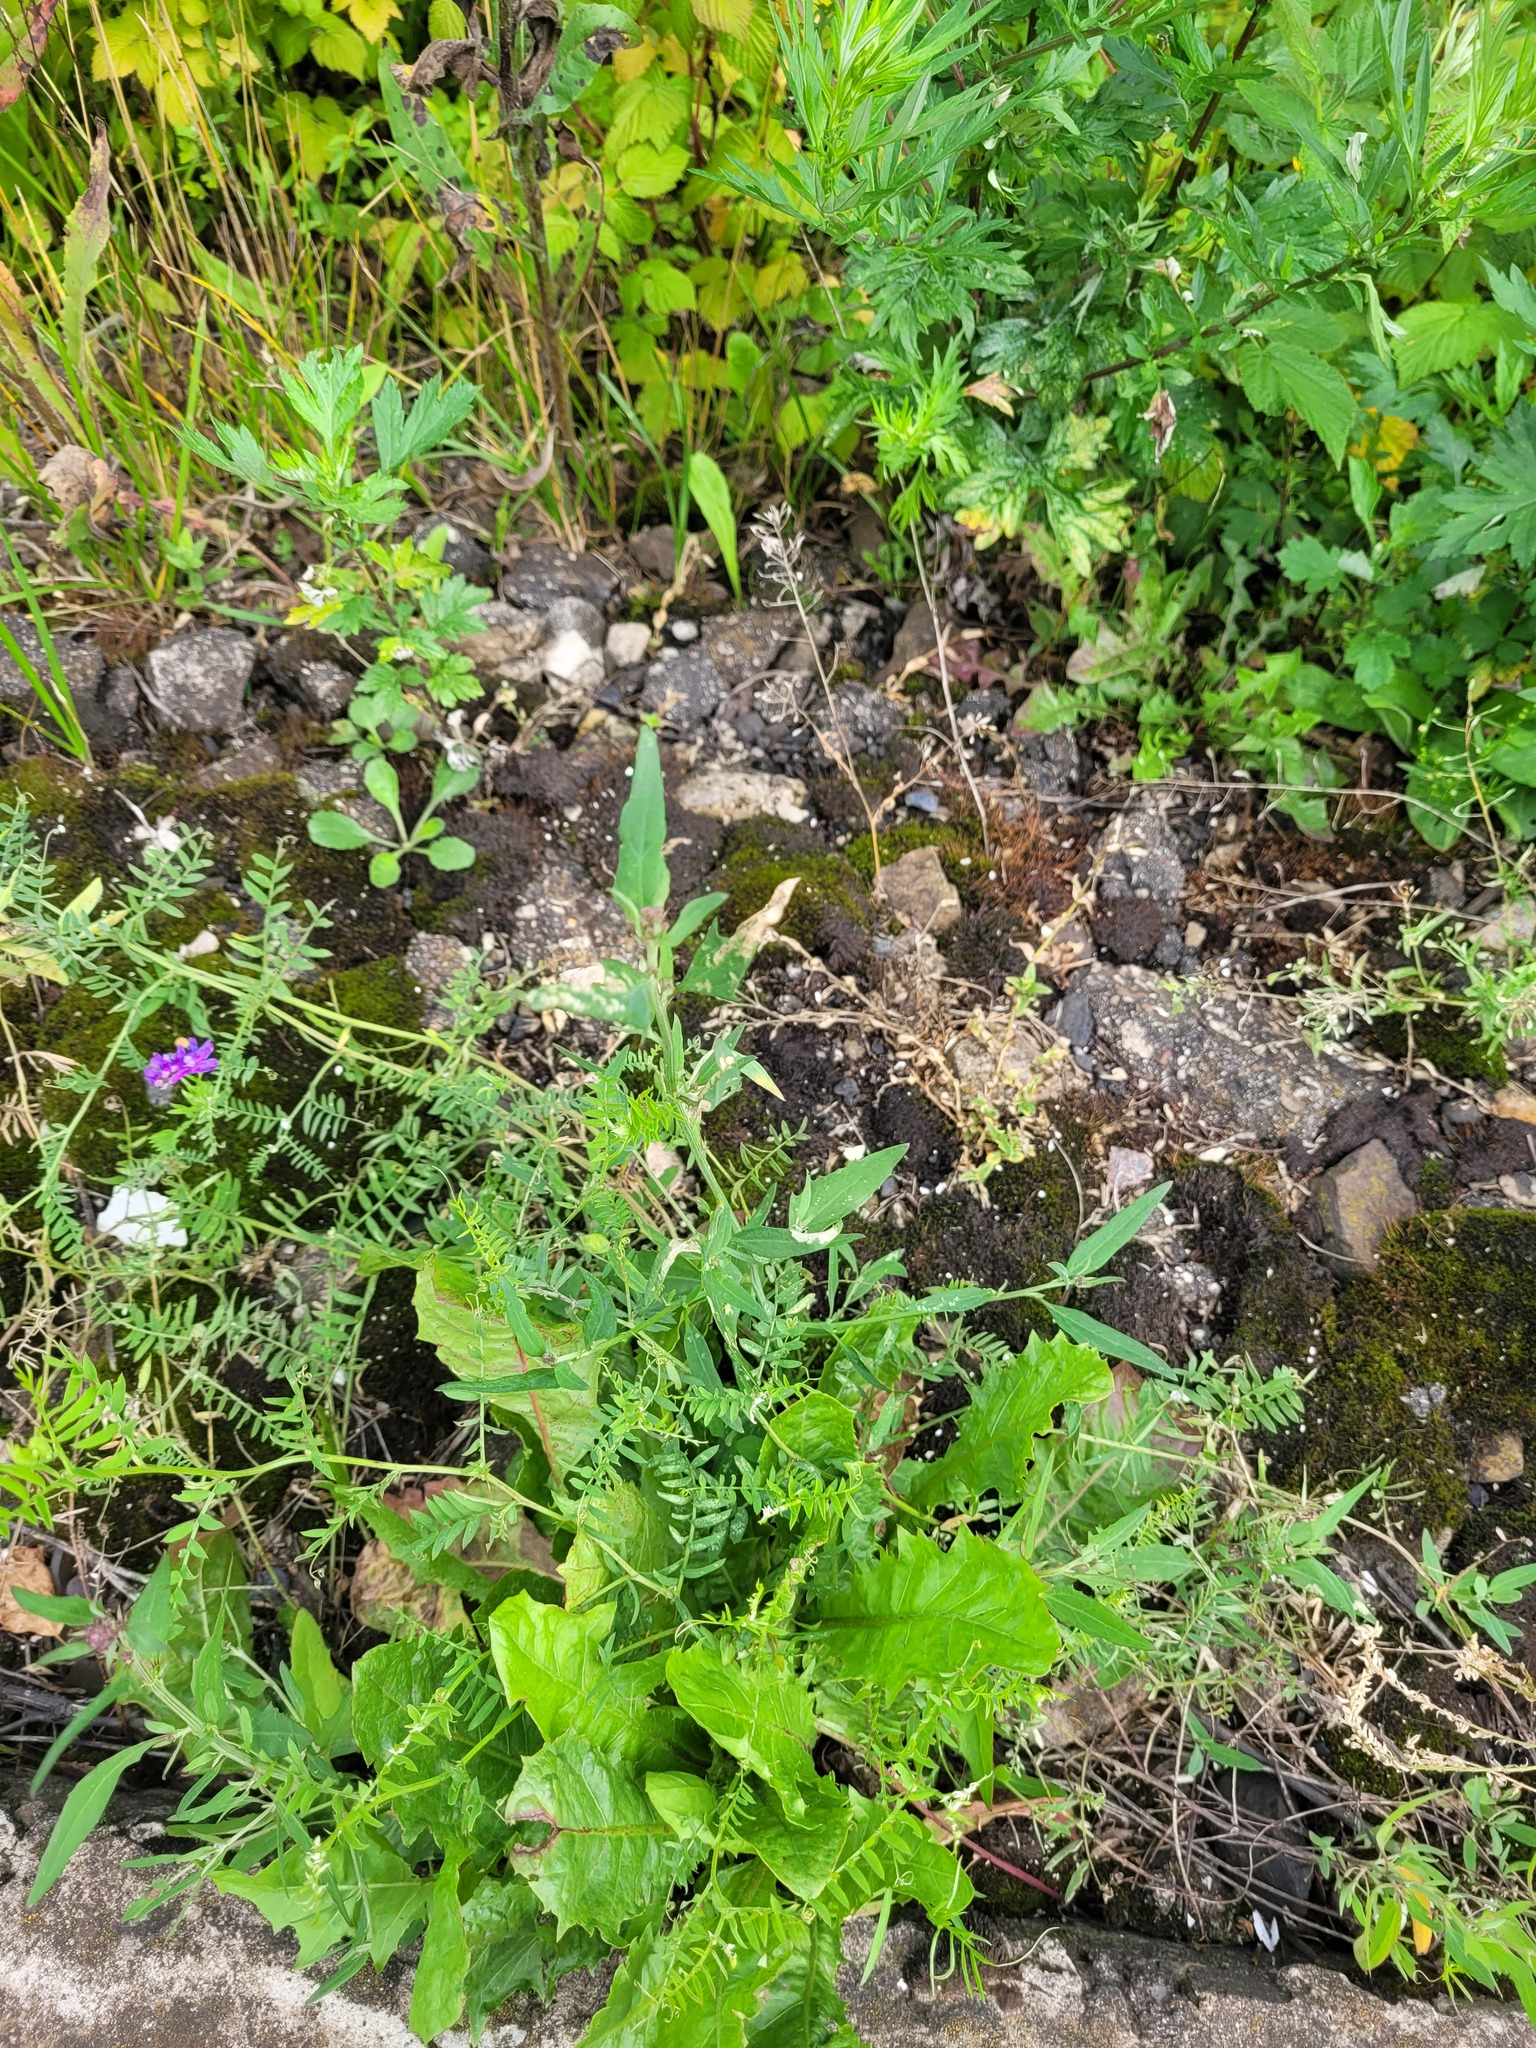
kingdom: Plantae
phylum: Tracheophyta
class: Magnoliopsida
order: Caryophyllales
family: Amaranthaceae
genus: Atriplex
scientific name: Atriplex patula
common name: Common orache
